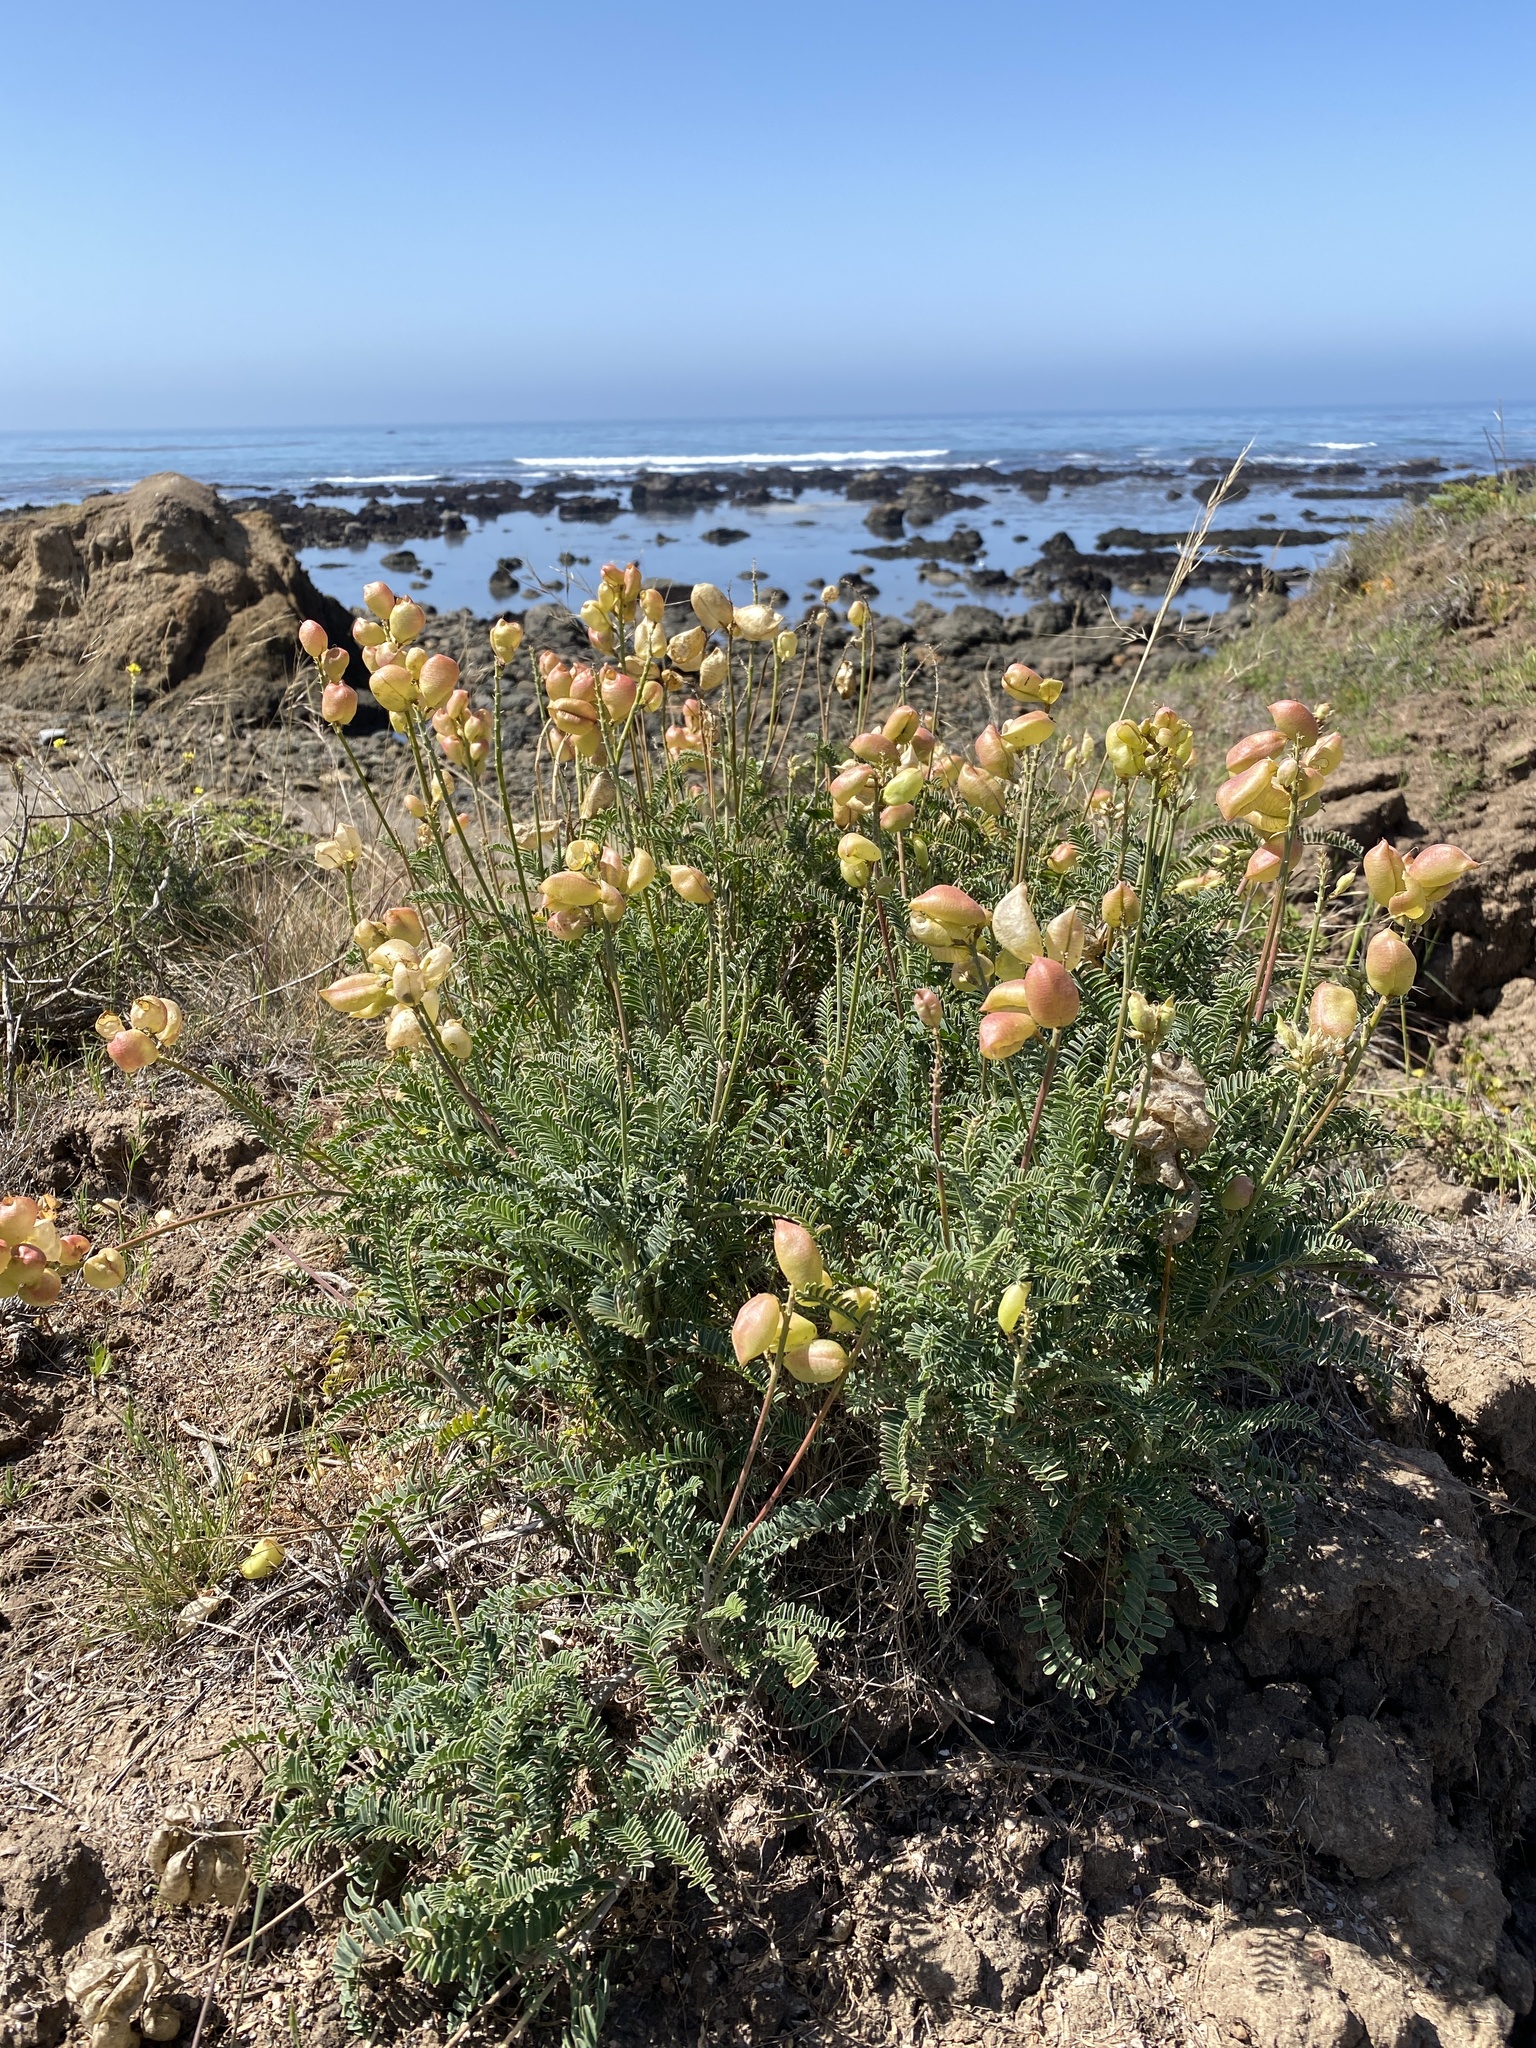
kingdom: Plantae
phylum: Tracheophyta
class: Magnoliopsida
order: Fabales
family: Fabaceae
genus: Astragalus
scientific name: Astragalus curtipes
